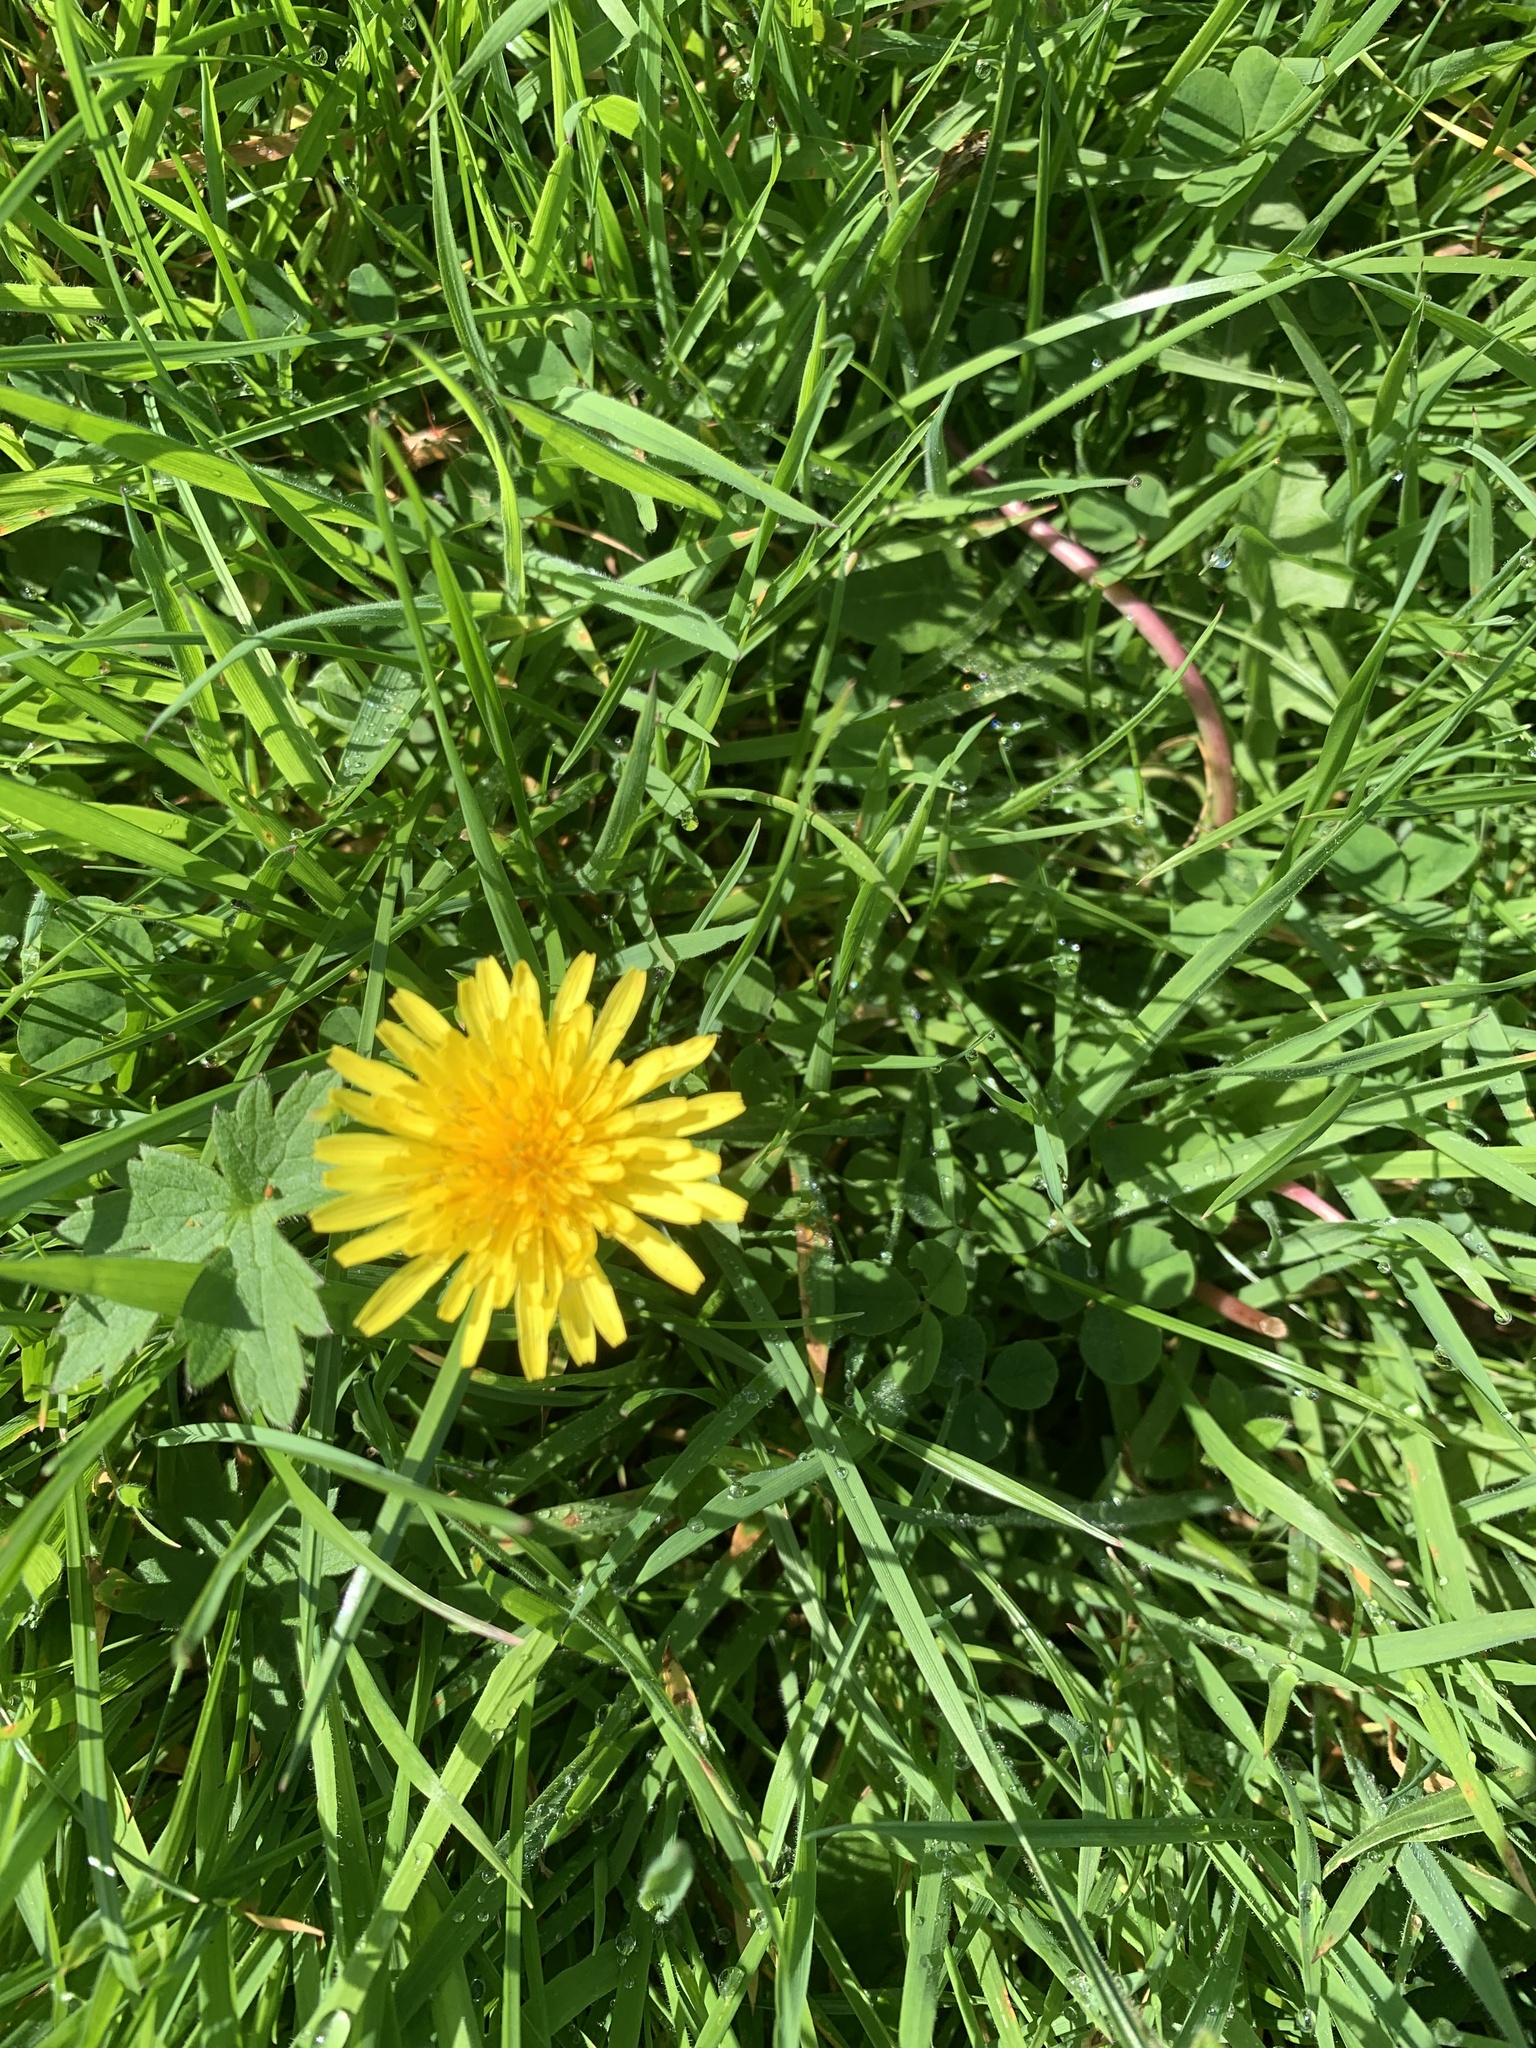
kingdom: Plantae
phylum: Tracheophyta
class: Magnoliopsida
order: Asterales
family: Asteraceae
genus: Taraxacum
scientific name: Taraxacum officinale
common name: Common dandelion
